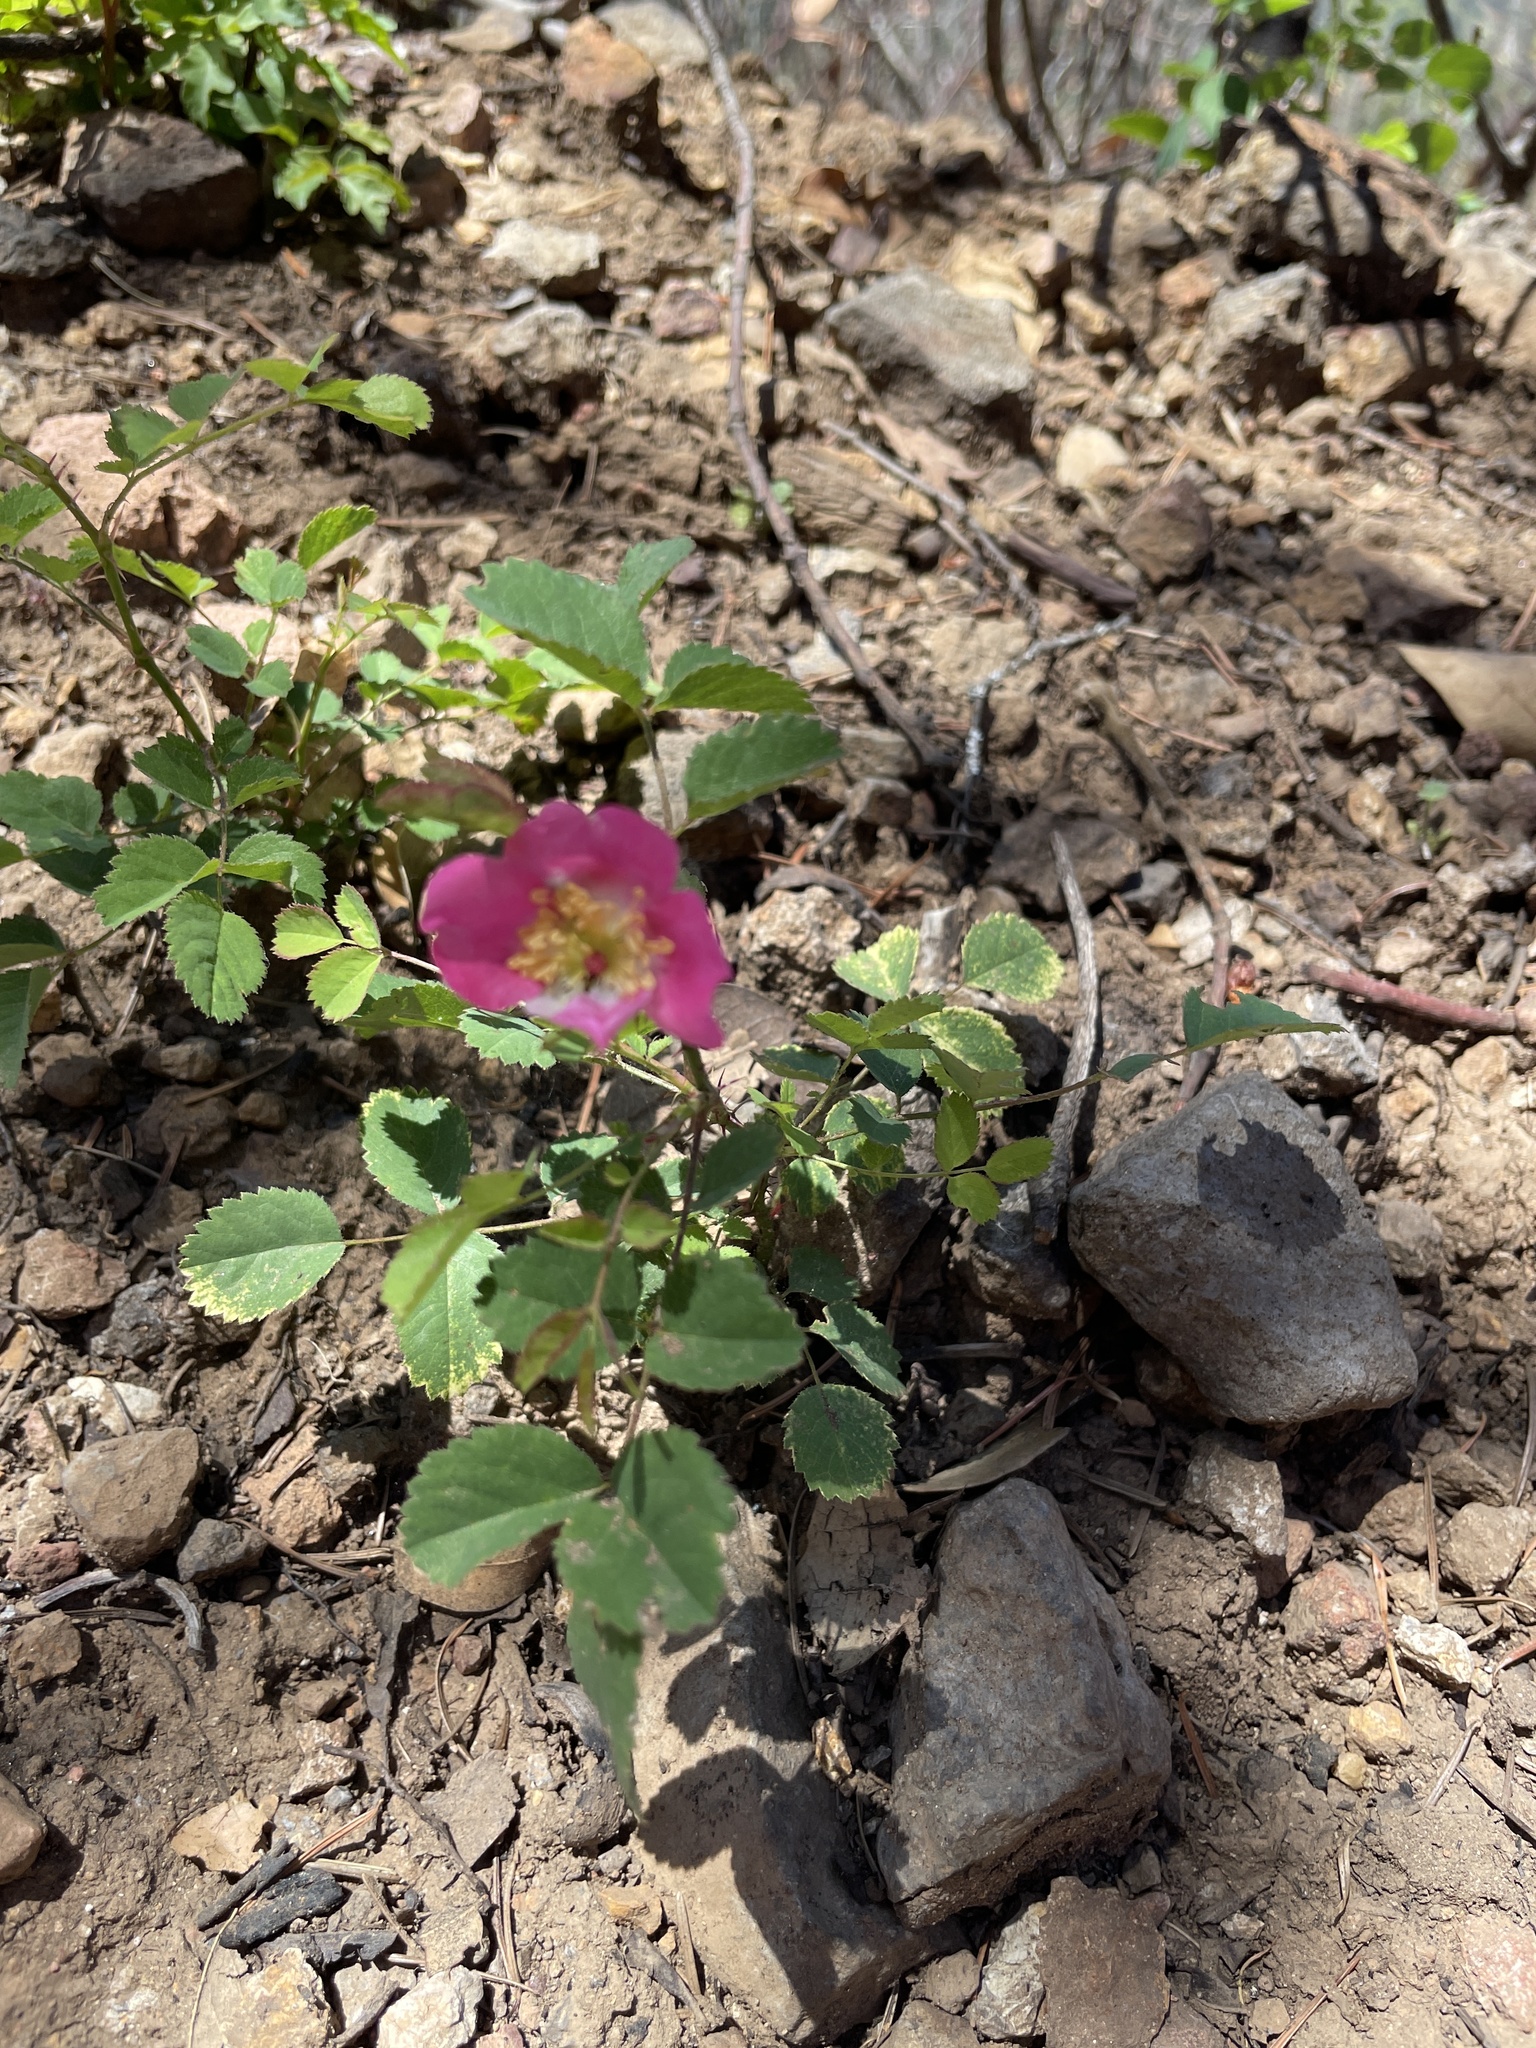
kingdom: Plantae
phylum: Tracheophyta
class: Magnoliopsida
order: Rosales
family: Rosaceae
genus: Rosa
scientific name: Rosa spithamea
